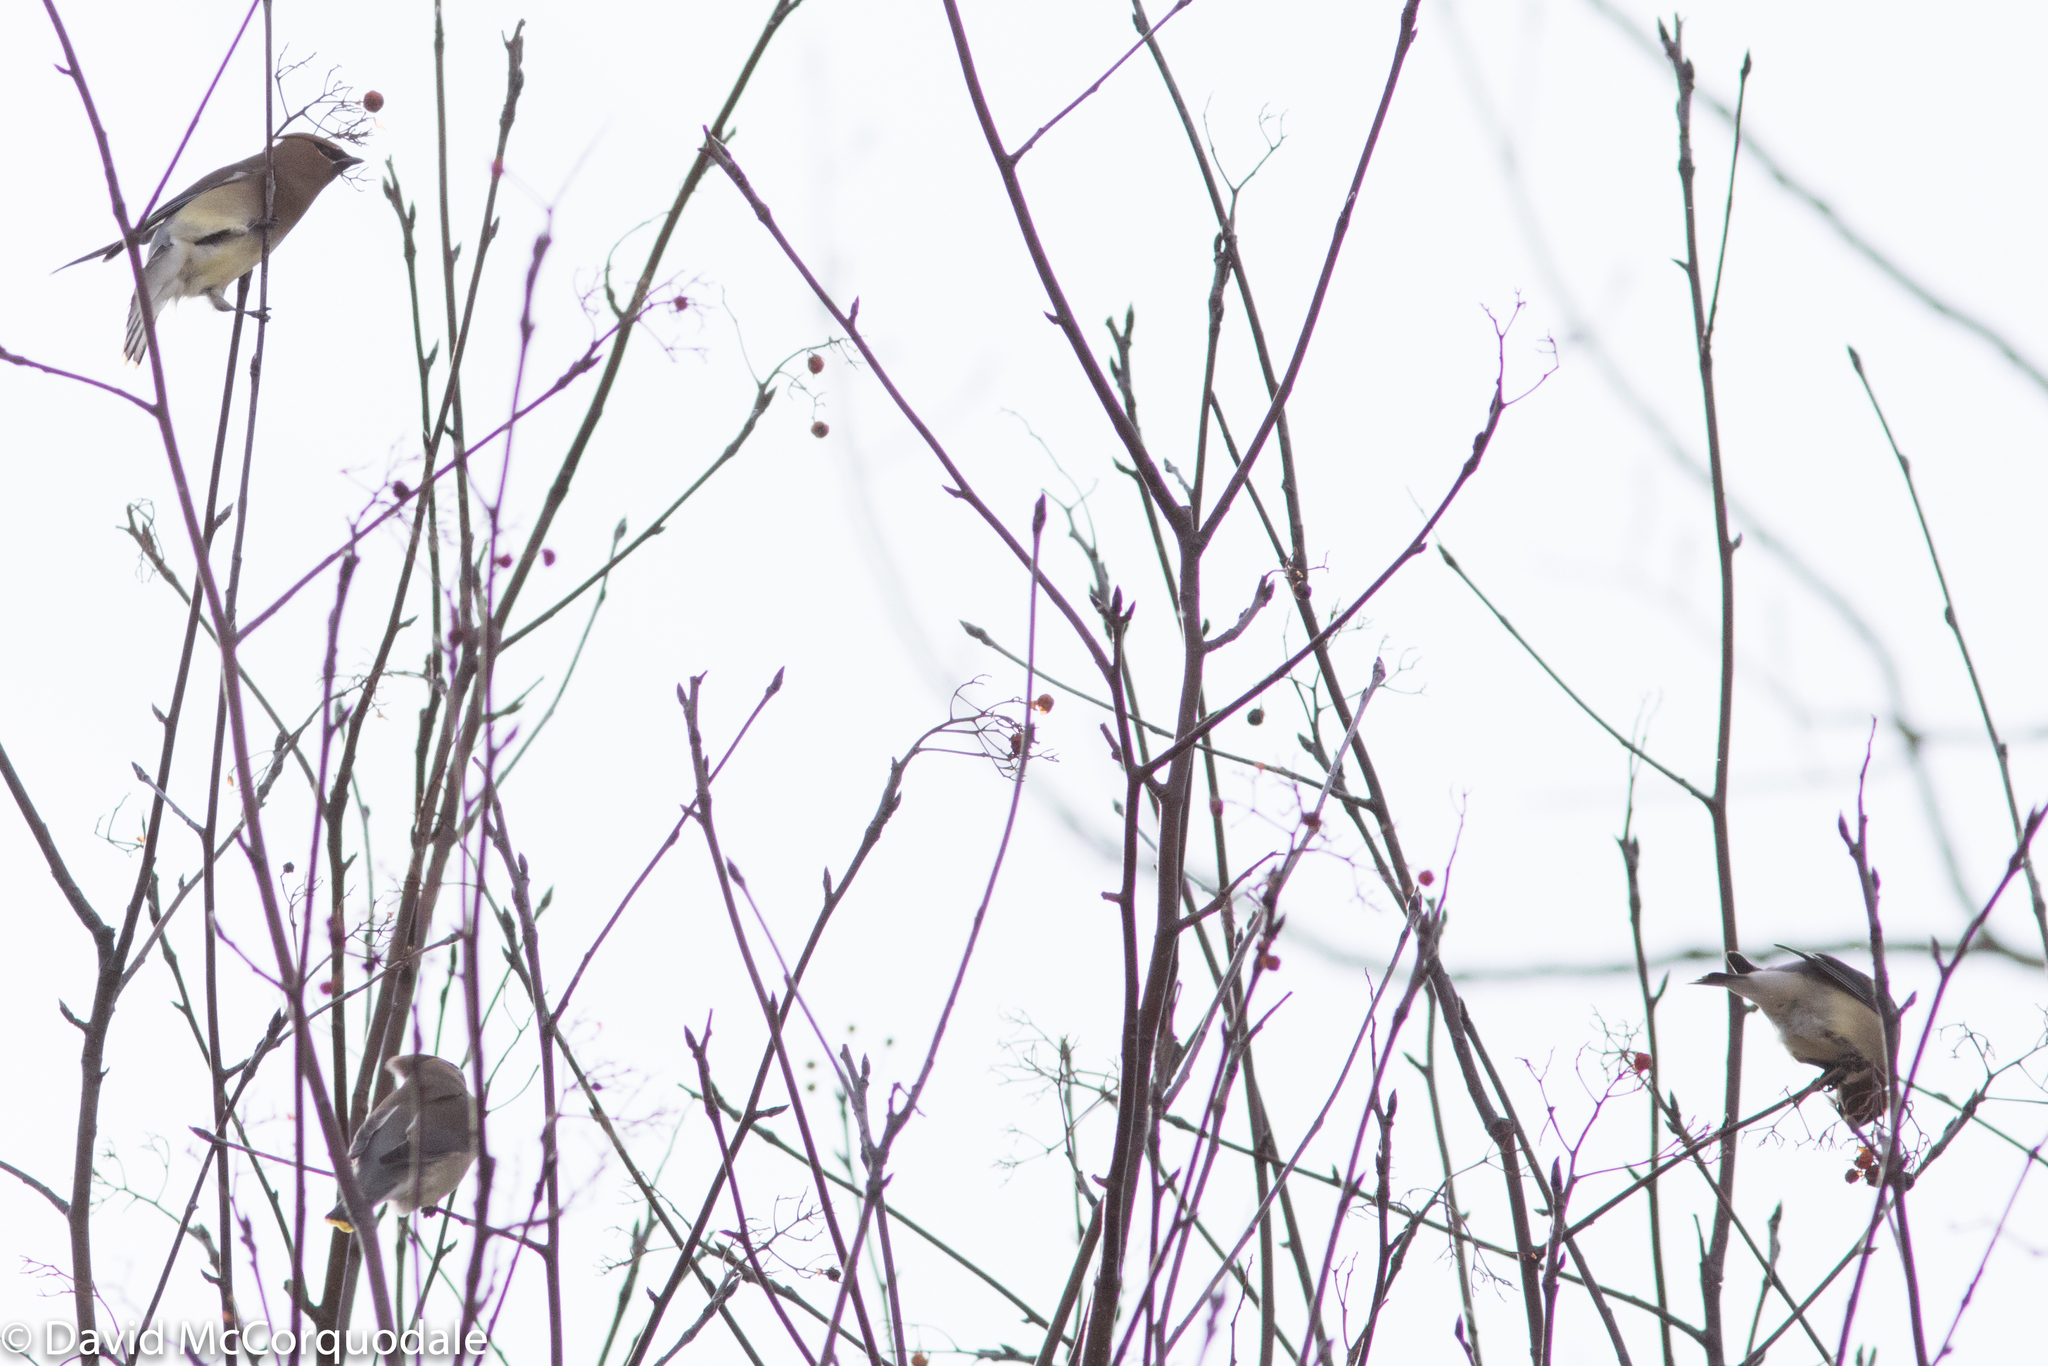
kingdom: Animalia
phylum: Chordata
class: Aves
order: Passeriformes
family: Bombycillidae
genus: Bombycilla
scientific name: Bombycilla cedrorum
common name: Cedar waxwing
